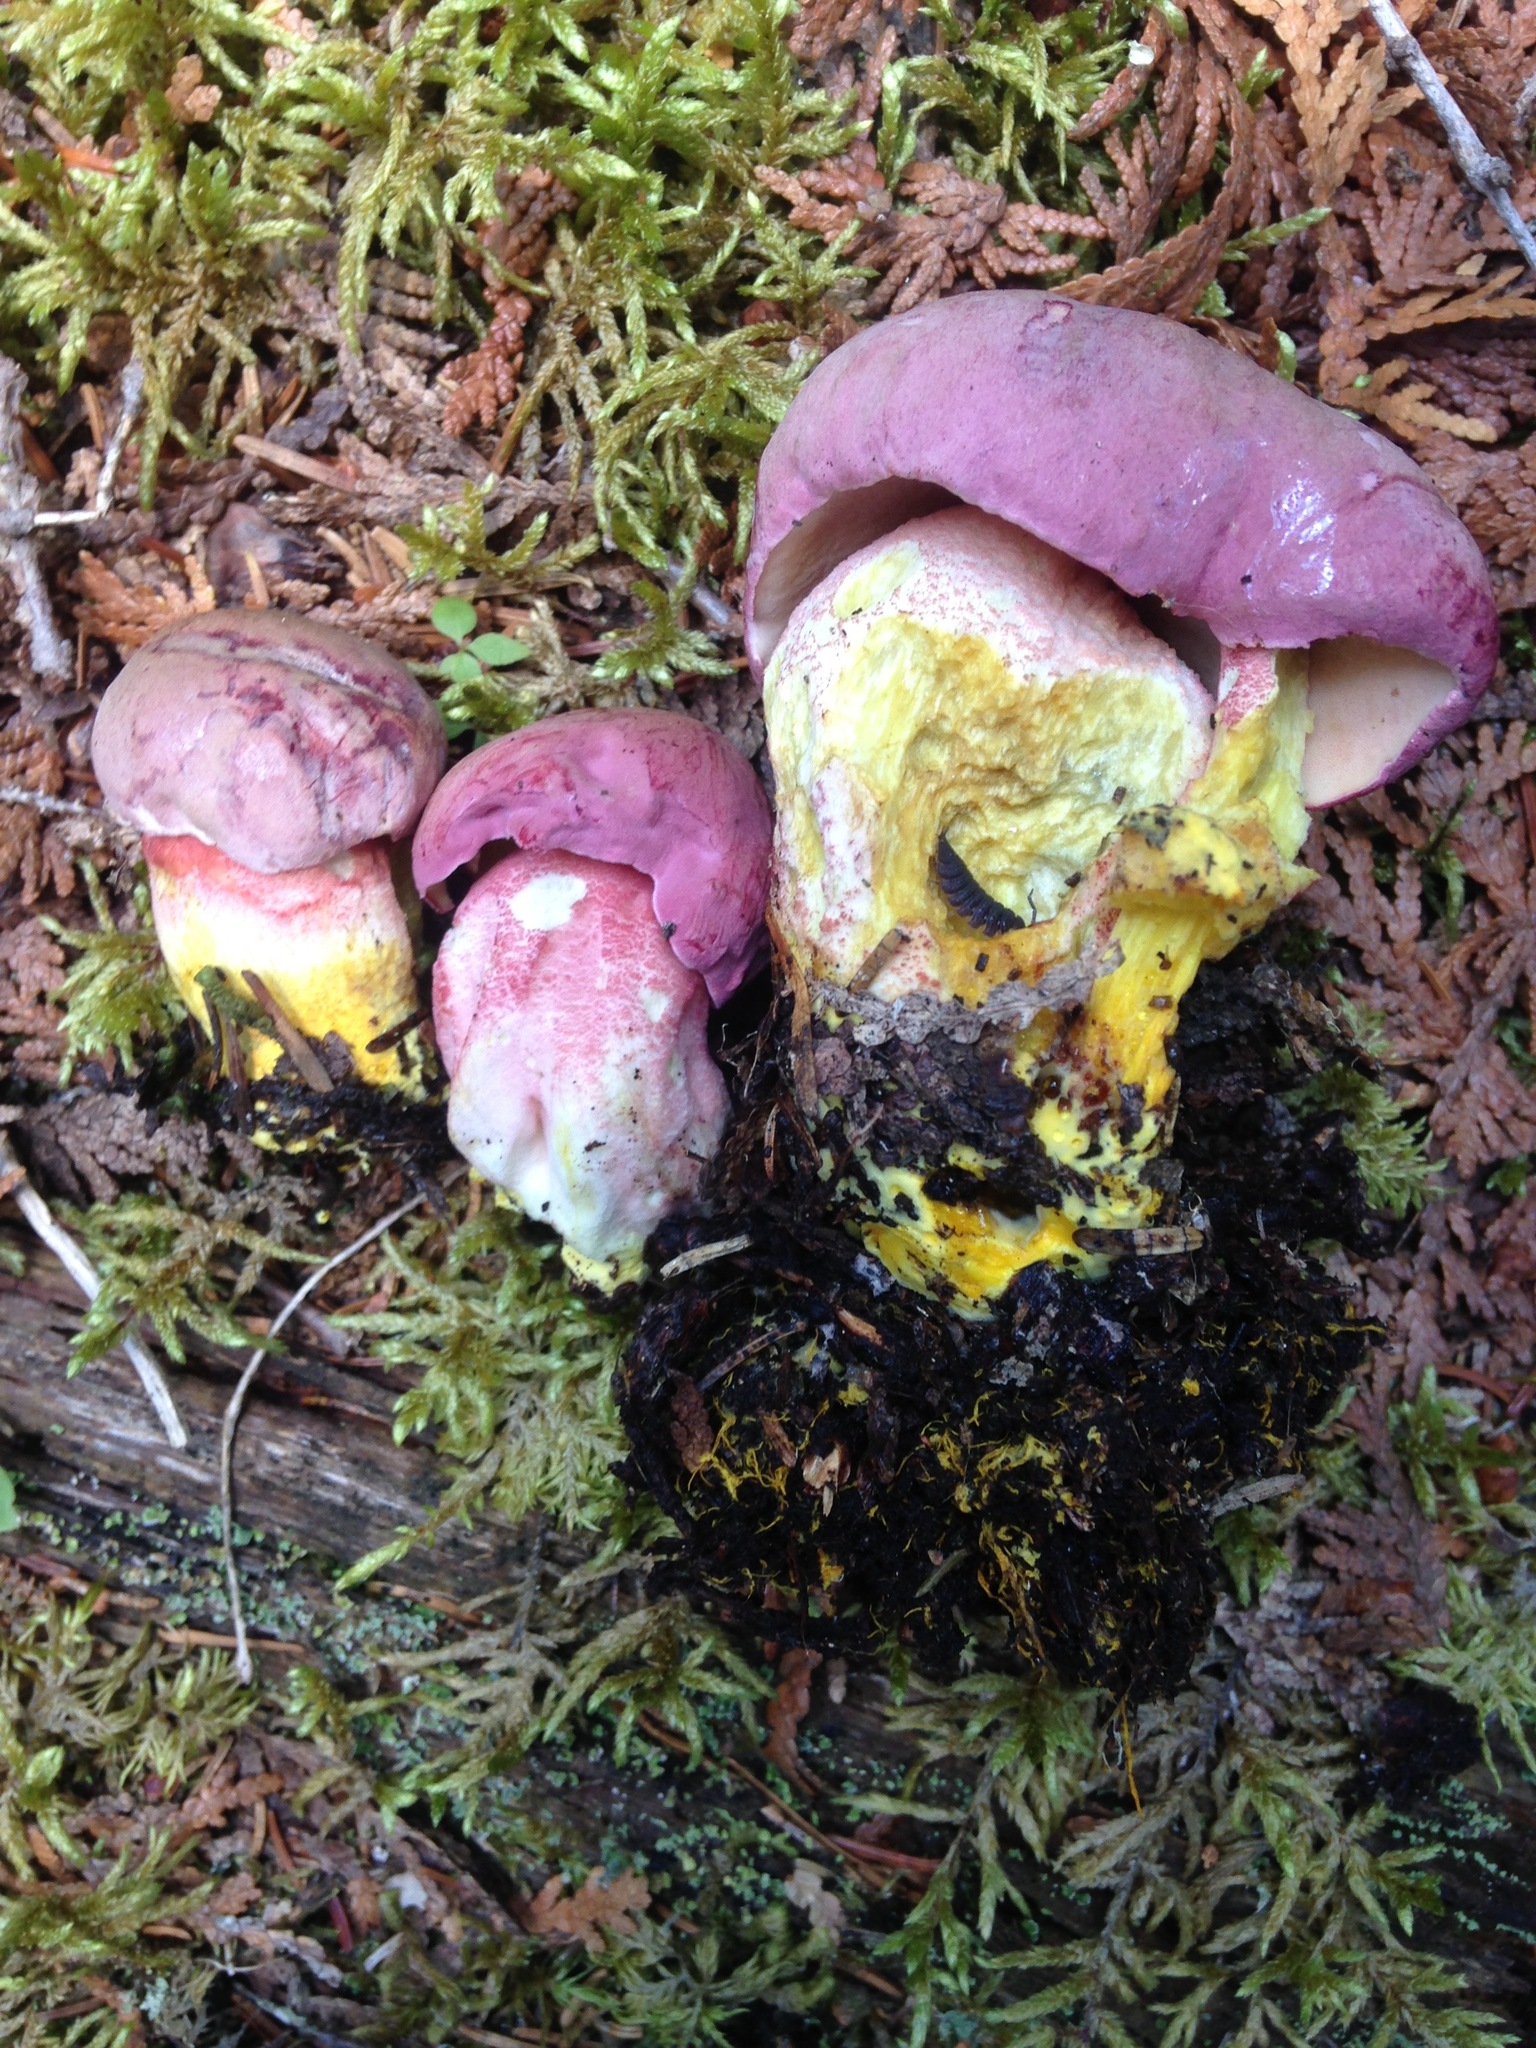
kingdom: Fungi
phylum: Basidiomycota
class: Agaricomycetes
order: Boletales
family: Boletaceae
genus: Harrya
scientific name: Harrya chromipes
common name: Chrome-footed bolete
